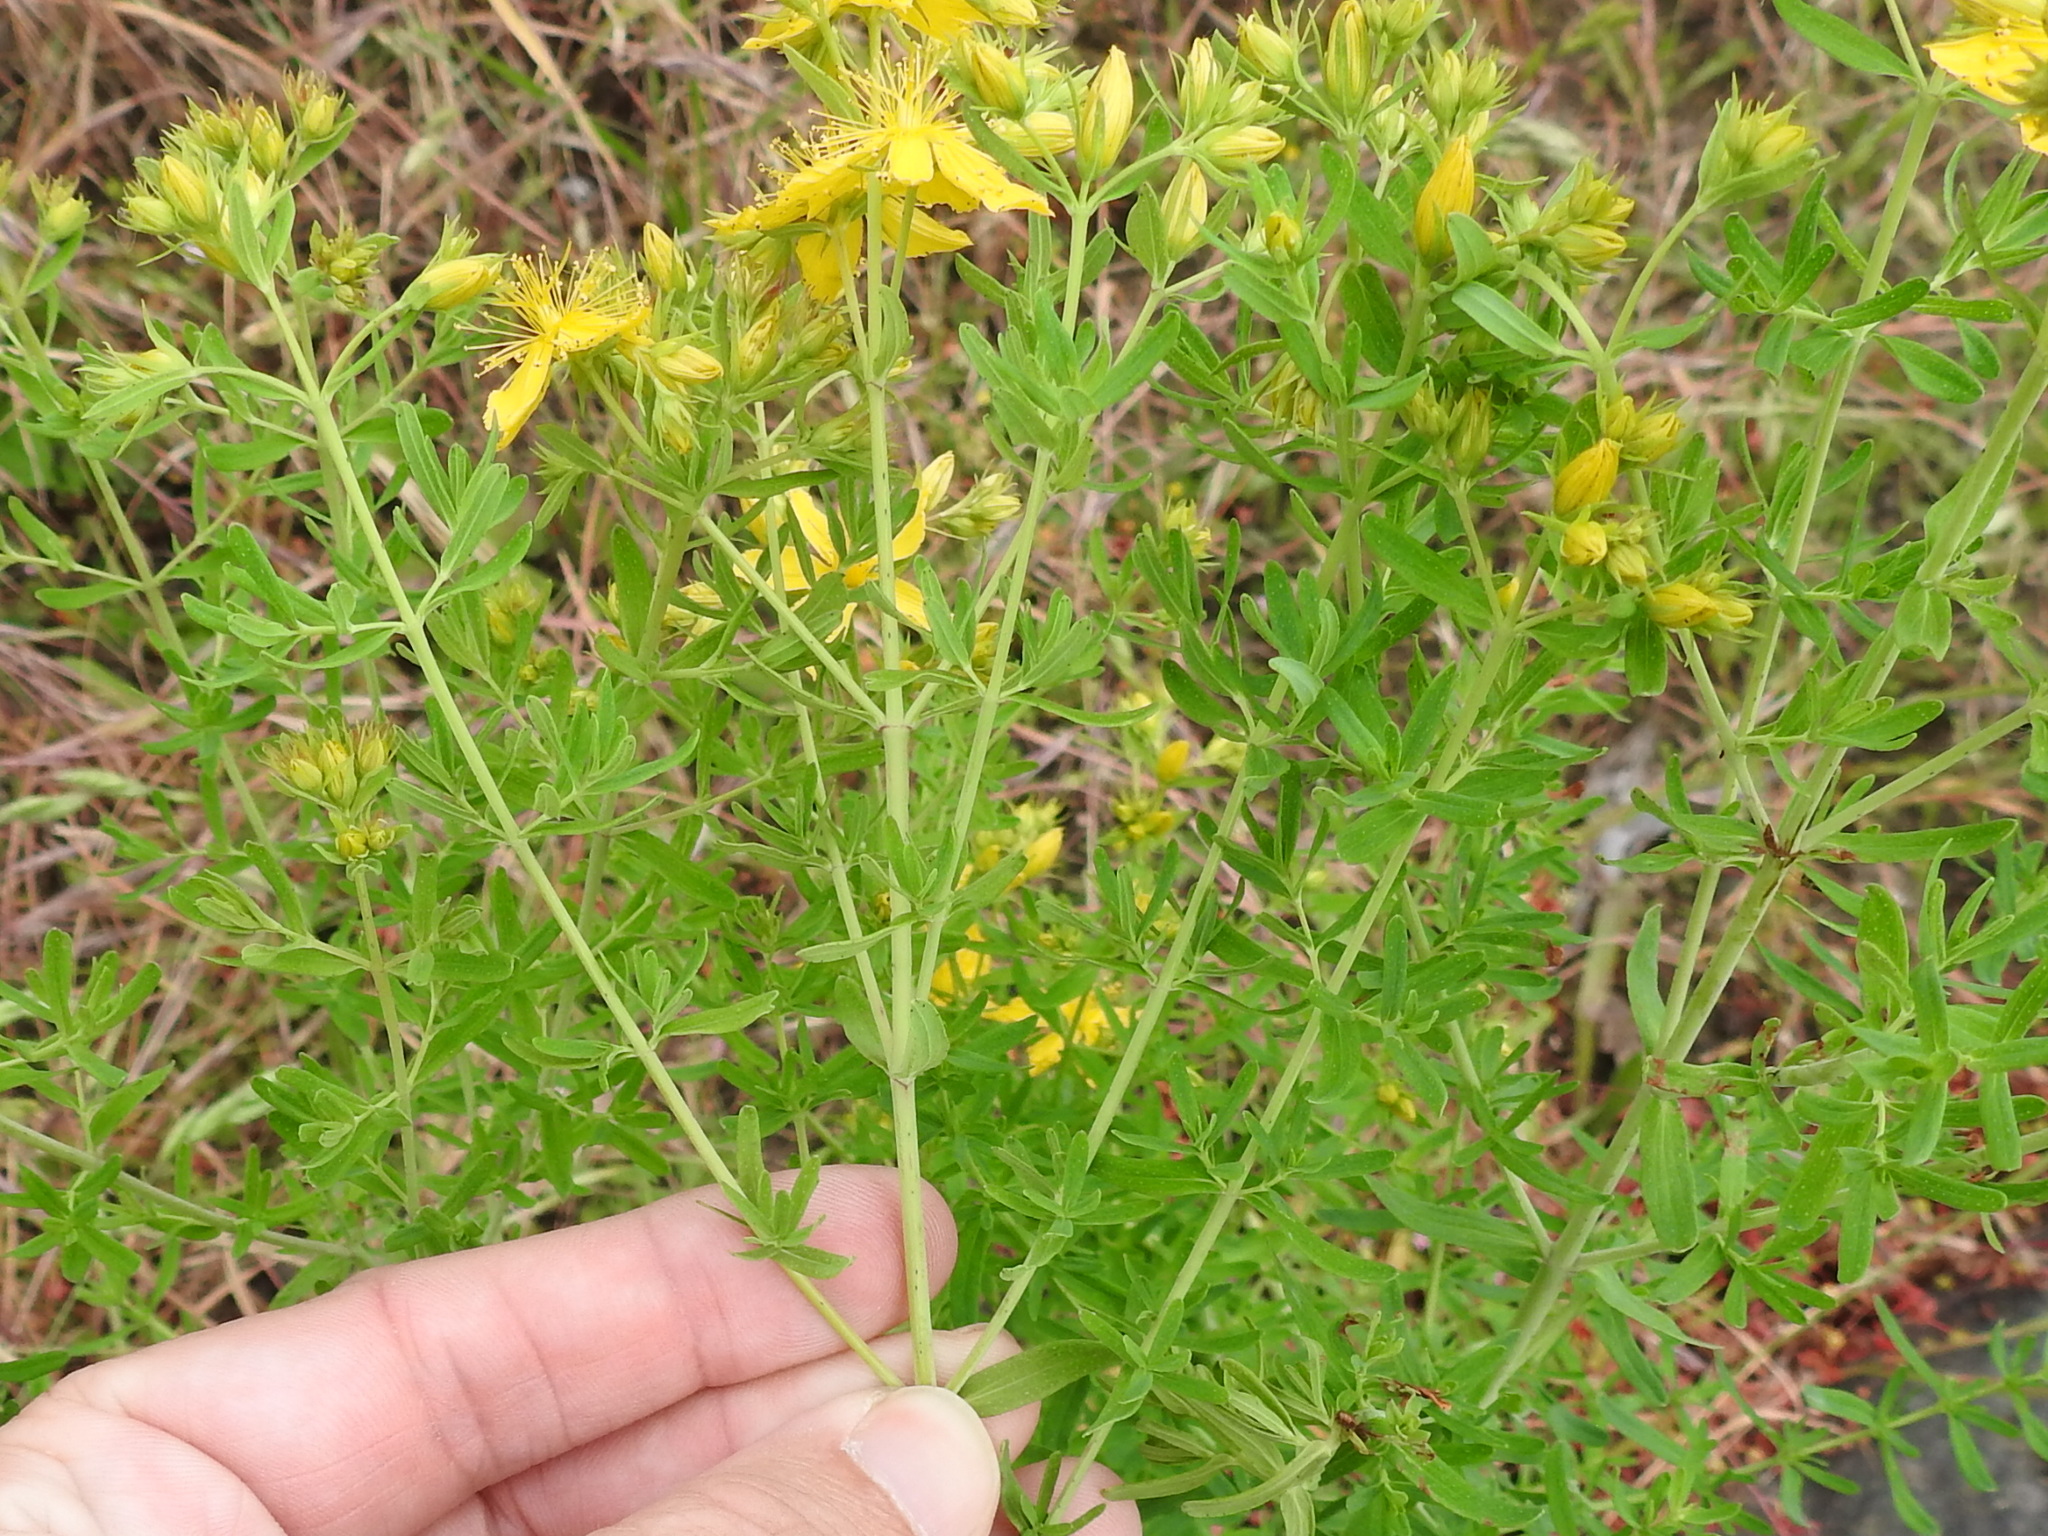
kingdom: Plantae
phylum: Tracheophyta
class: Magnoliopsida
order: Malpighiales
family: Hypericaceae
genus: Hypericum
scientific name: Hypericum perforatum
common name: Common st. johnswort
